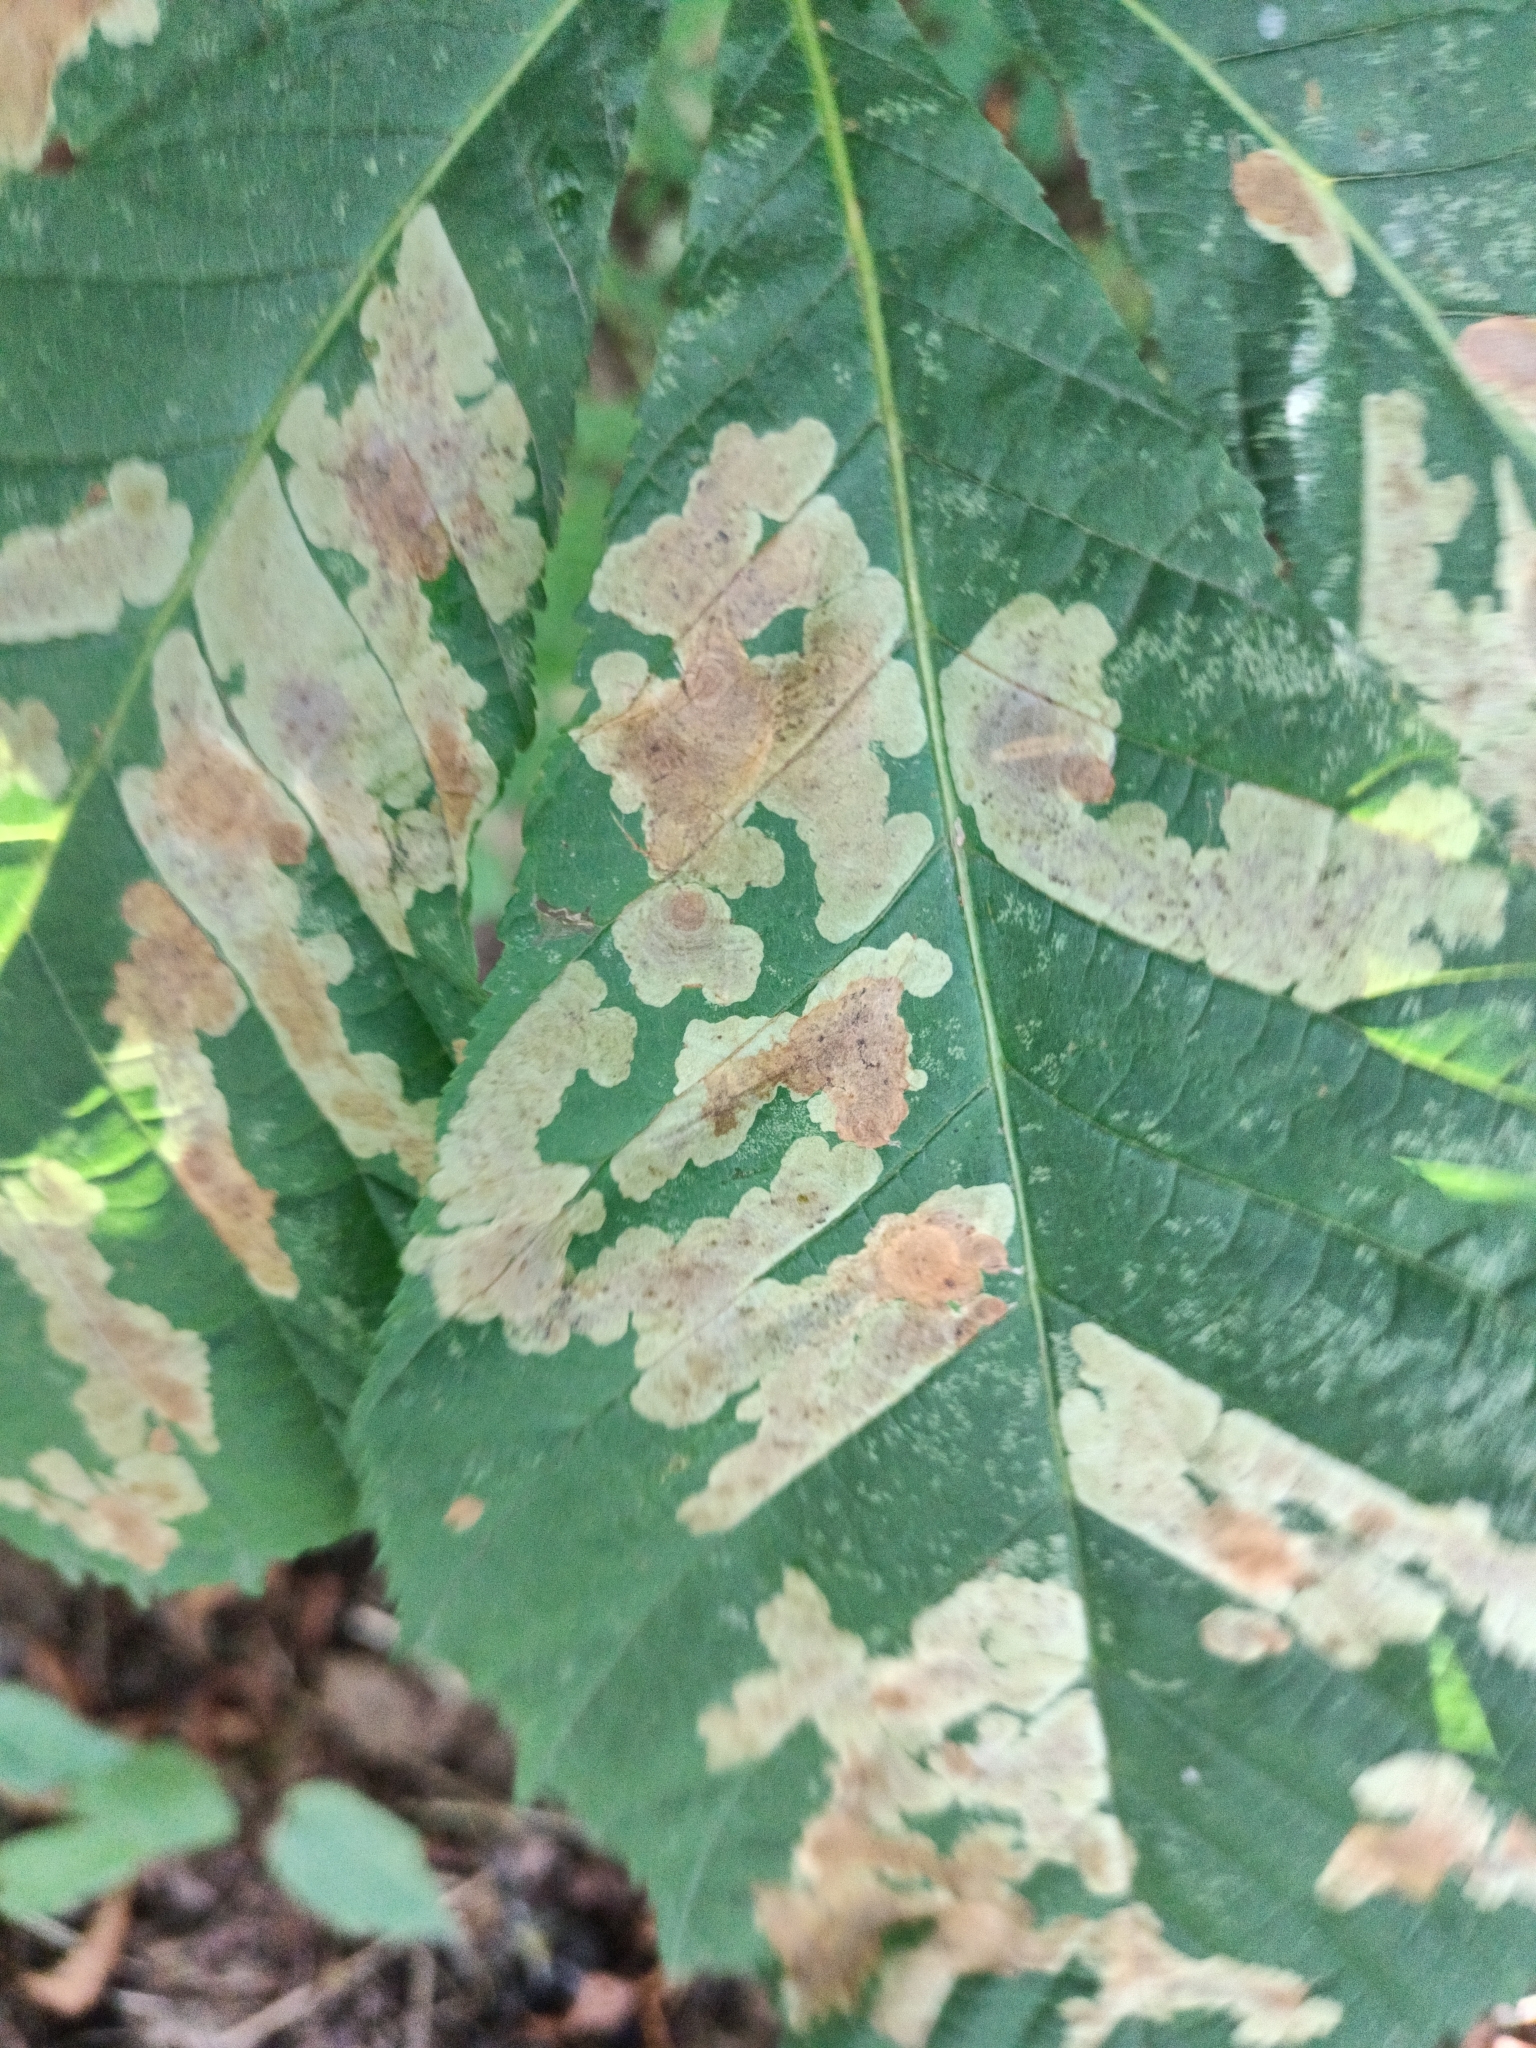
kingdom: Animalia
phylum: Arthropoda
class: Insecta
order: Lepidoptera
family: Gracillariidae
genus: Cameraria
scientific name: Cameraria ohridella
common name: Horse-chestnut leaf-miner
